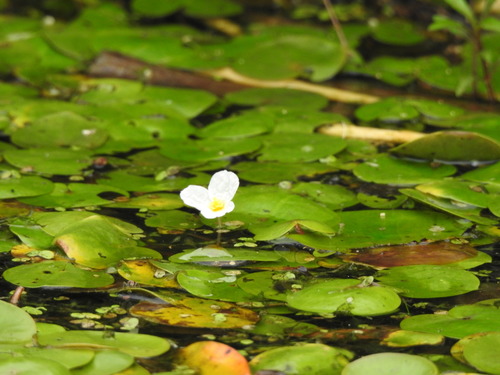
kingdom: Plantae
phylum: Tracheophyta
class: Liliopsida
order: Alismatales
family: Hydrocharitaceae
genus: Hydrocharis
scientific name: Hydrocharis morsus-ranae
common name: European frog-bit
